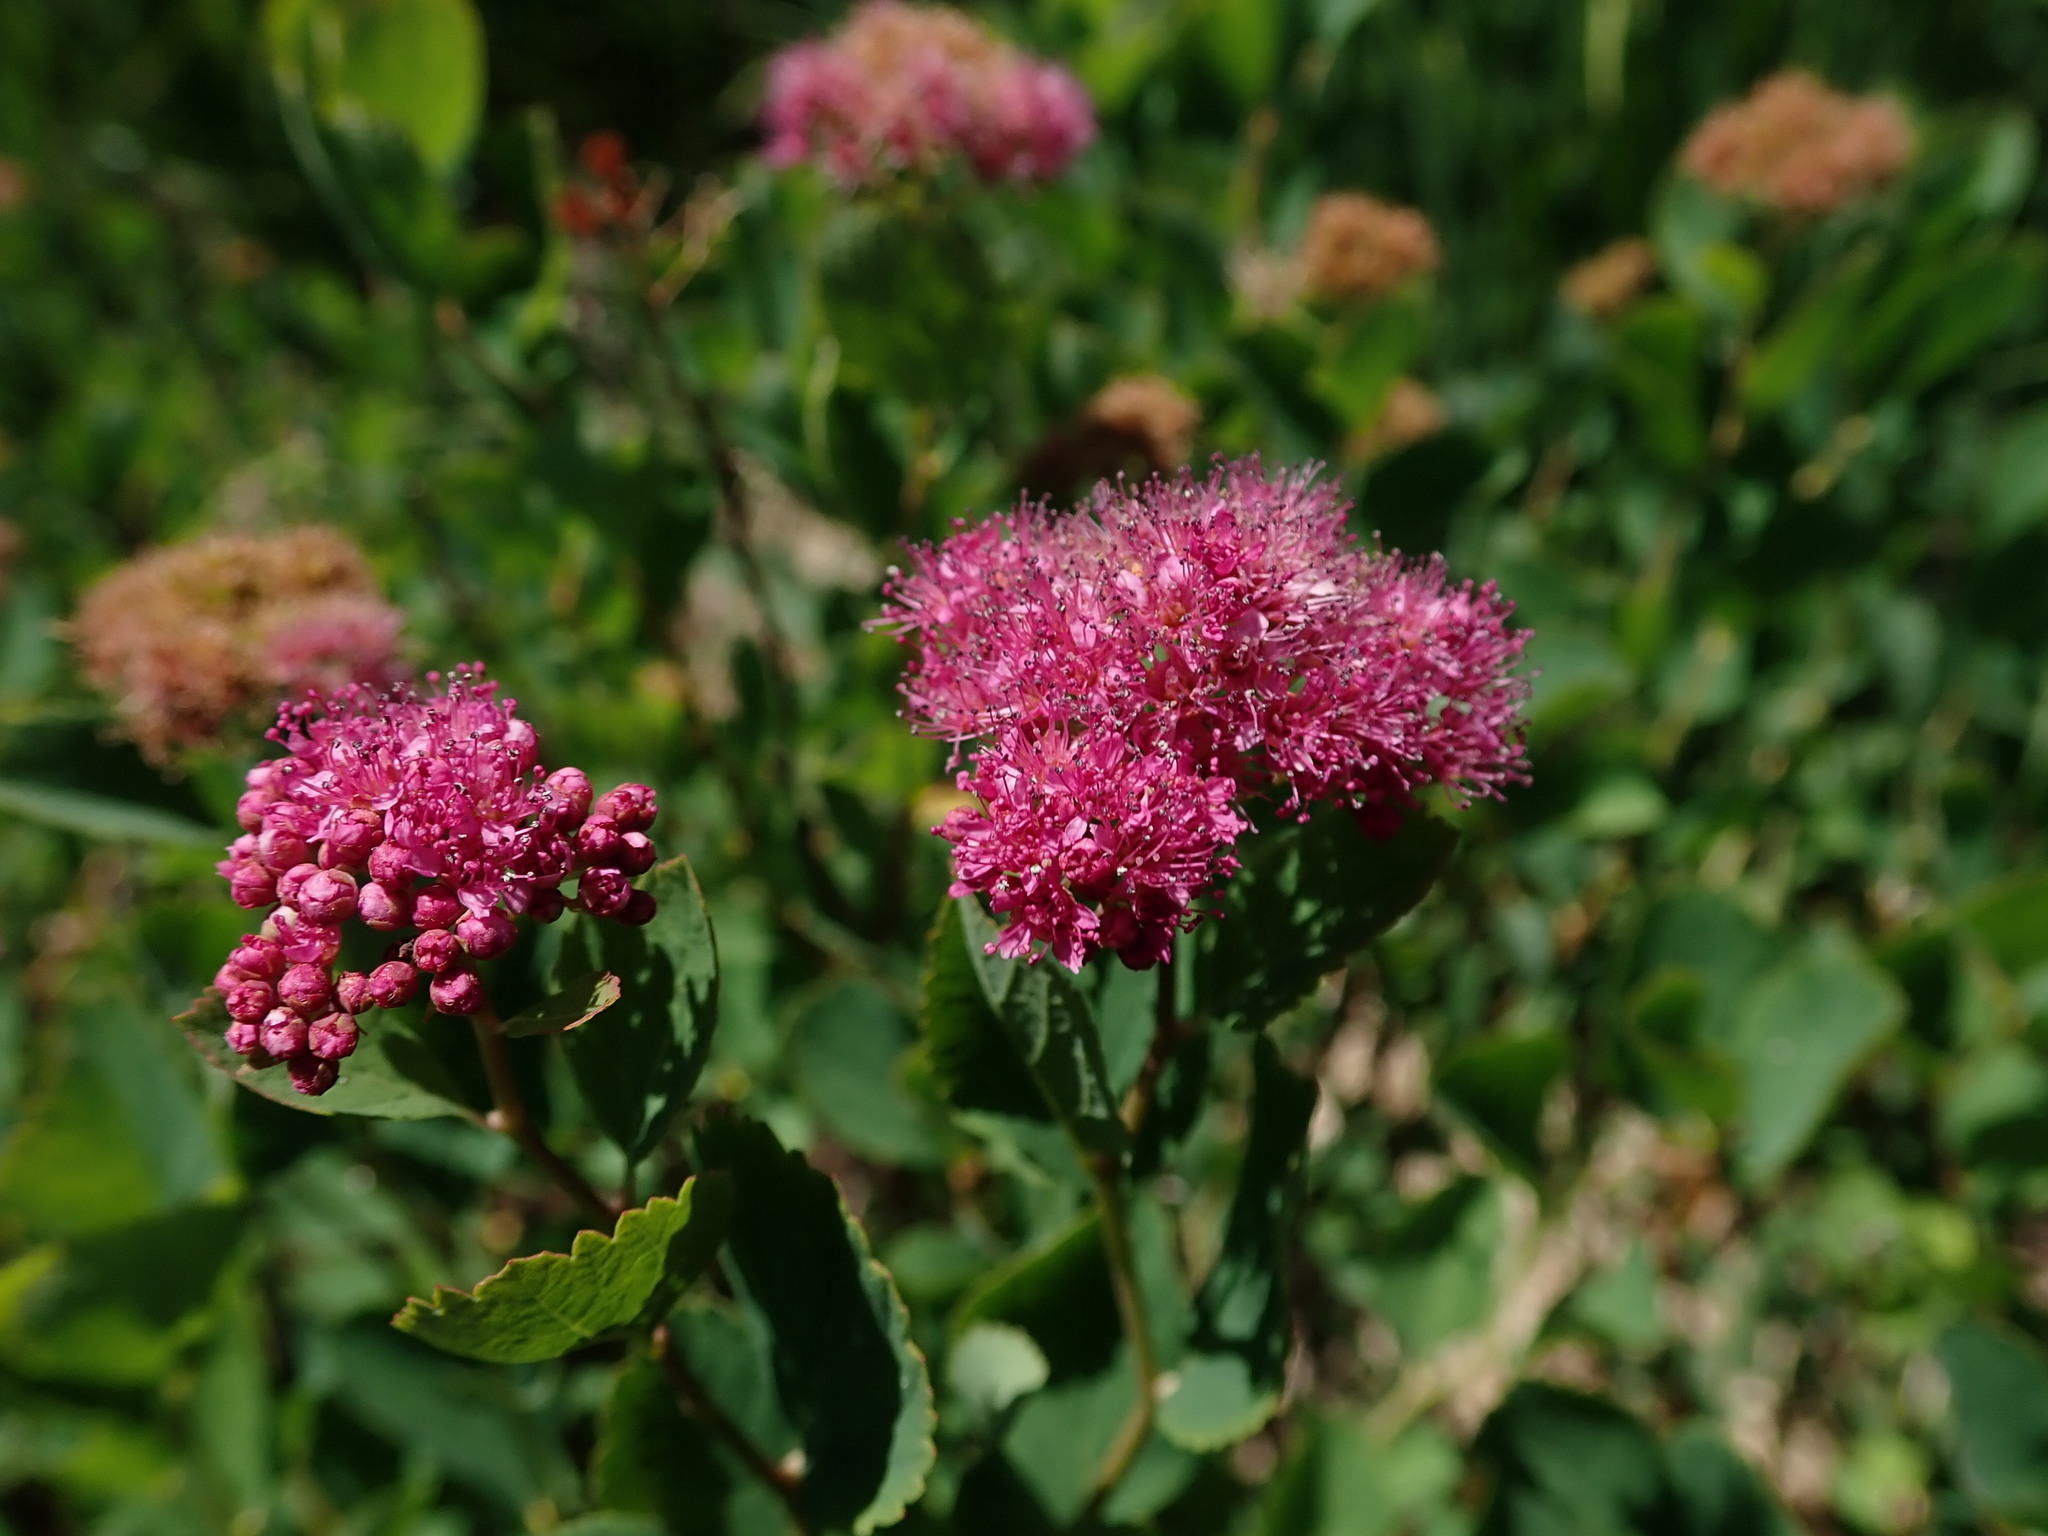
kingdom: Plantae
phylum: Tracheophyta
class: Magnoliopsida
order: Rosales
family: Rosaceae
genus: Spiraea
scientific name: Spiraea splendens
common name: Subalpine meadowsweet
